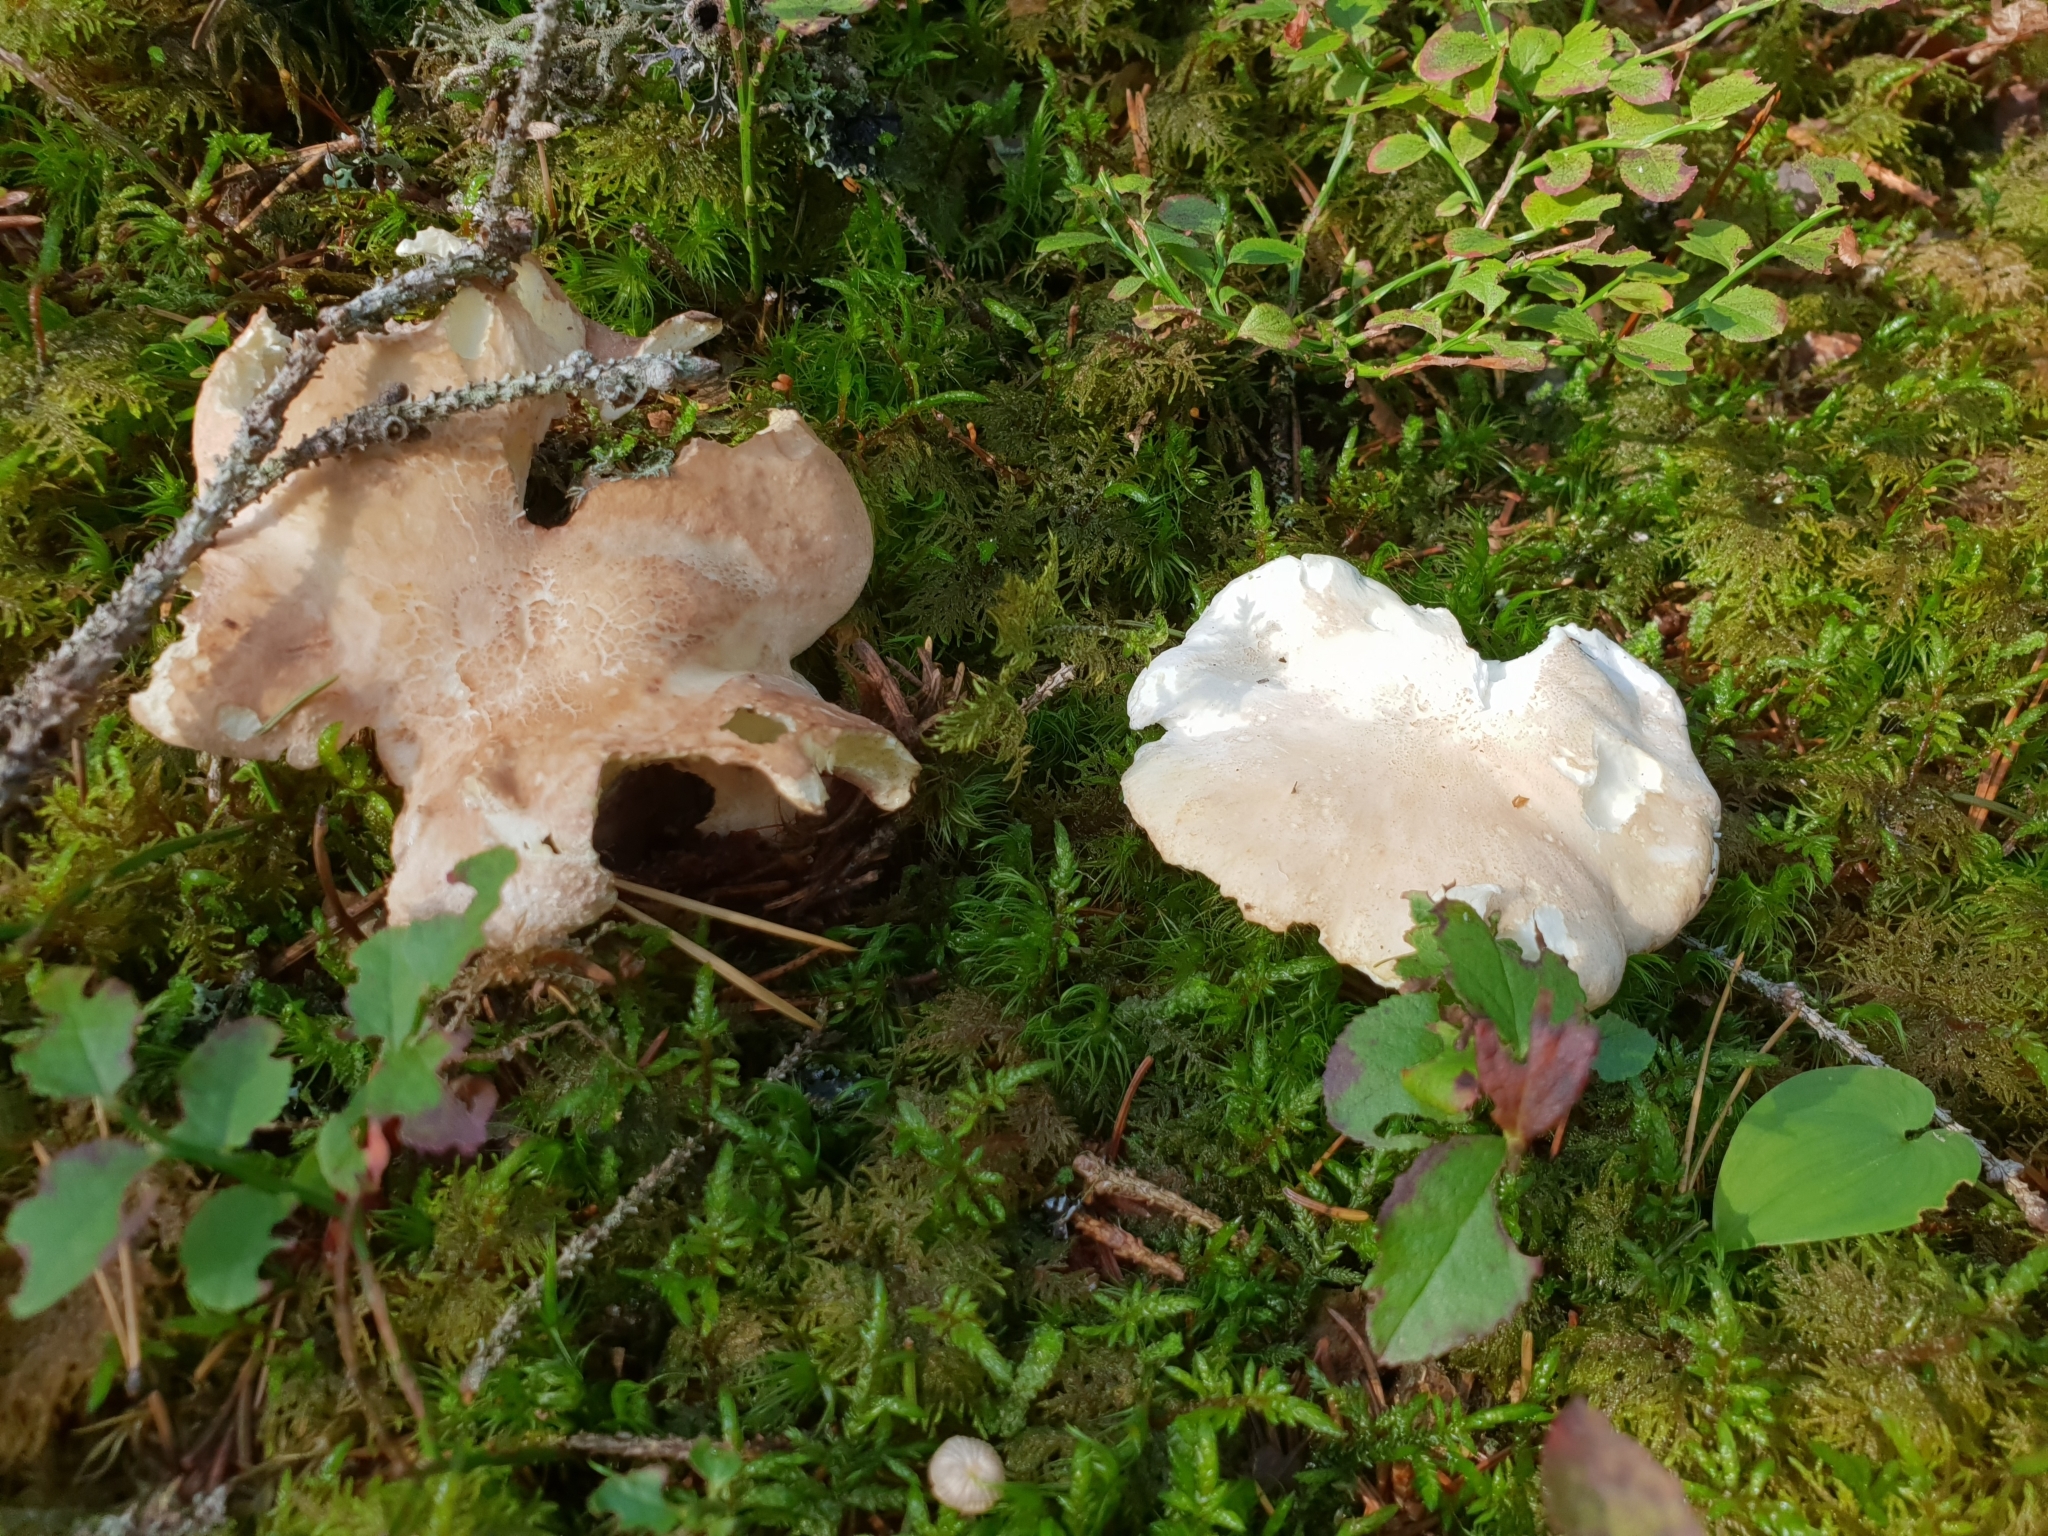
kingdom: Fungi
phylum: Basidiomycota
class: Agaricomycetes
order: Russulales
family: Albatrellaceae
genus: Albatrellus
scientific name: Albatrellus ovinus
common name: Forest lamb
